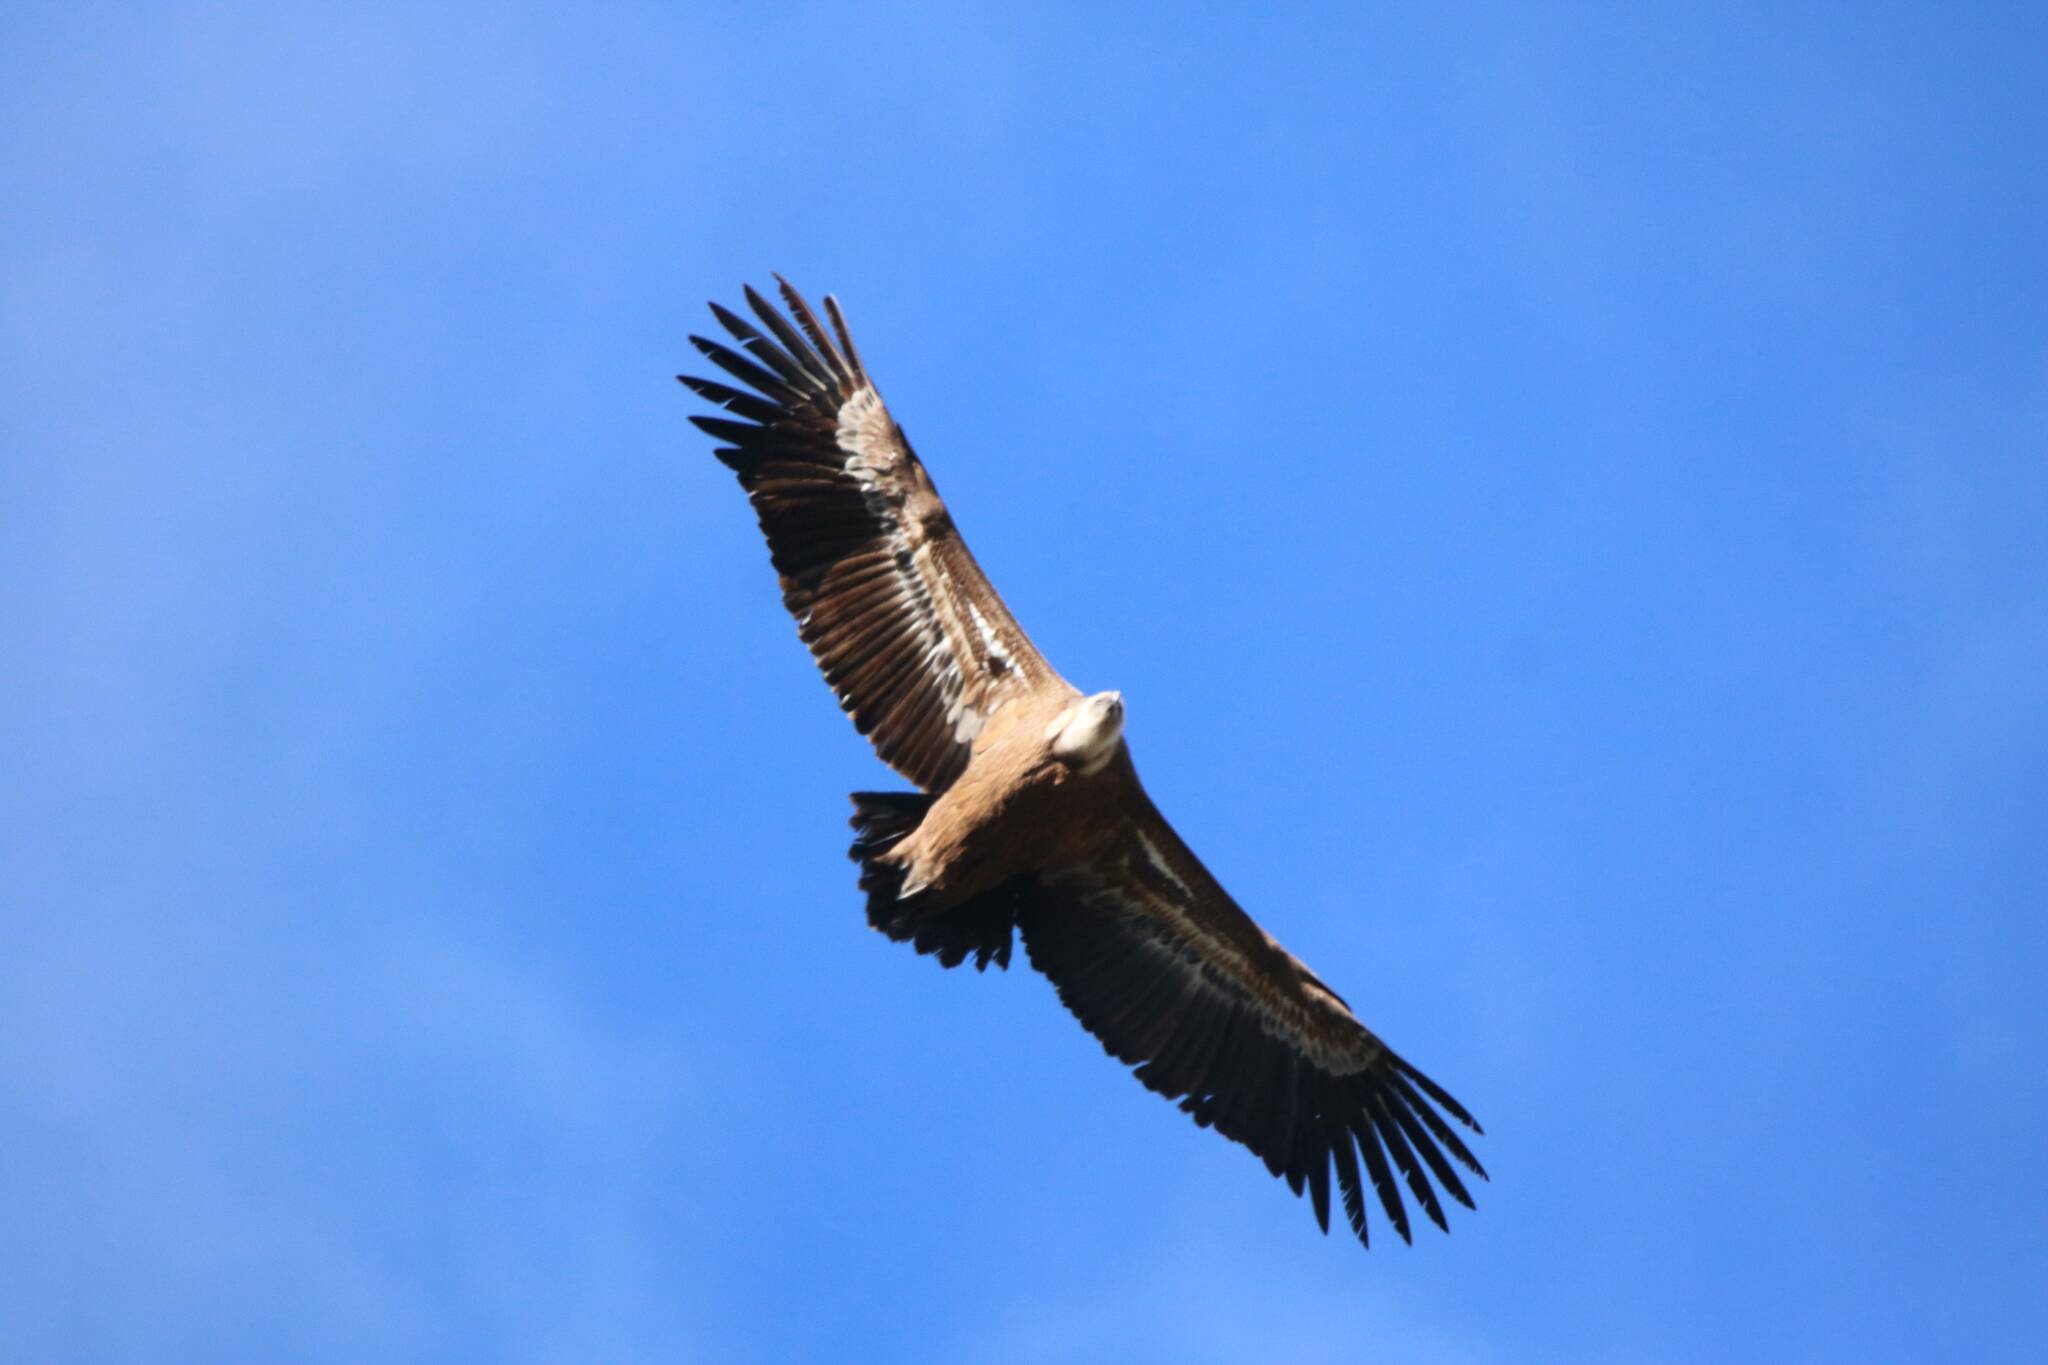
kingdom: Animalia
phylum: Chordata
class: Aves
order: Accipitriformes
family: Accipitridae
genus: Gyps
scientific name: Gyps fulvus
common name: Griffon vulture
